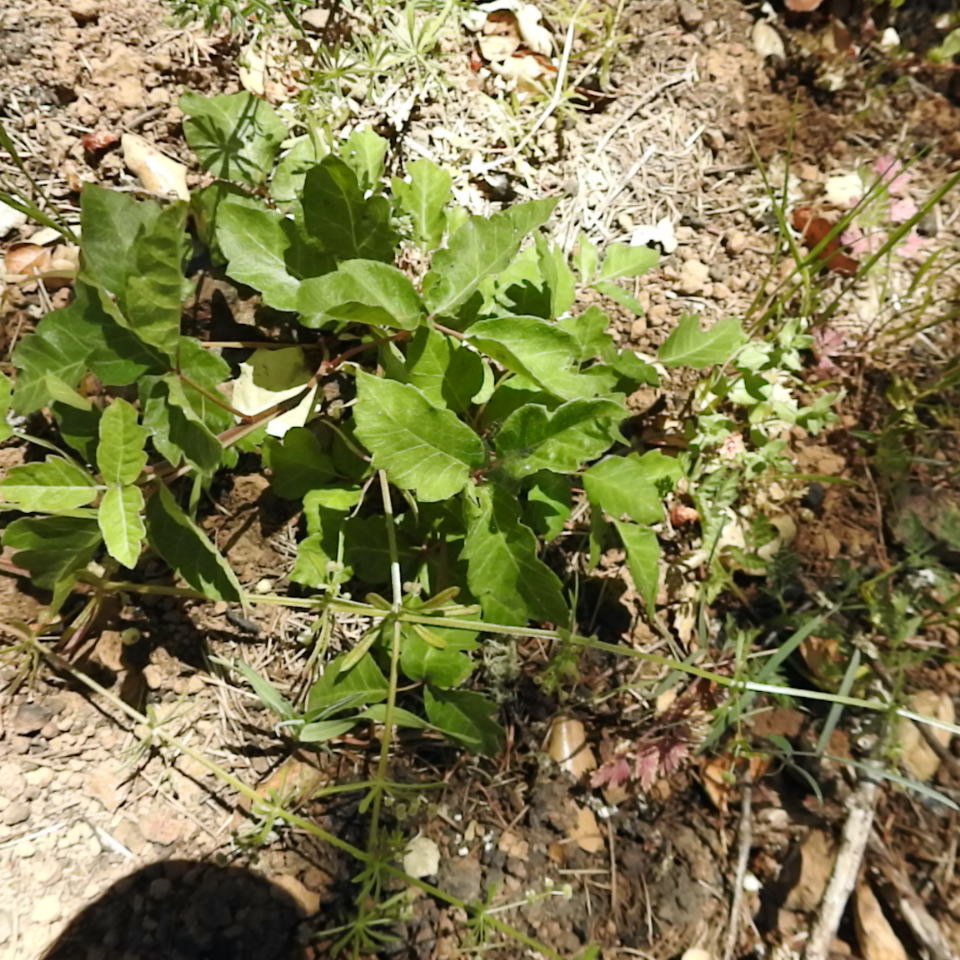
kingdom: Plantae
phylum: Tracheophyta
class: Magnoliopsida
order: Sapindales
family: Anacardiaceae
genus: Toxicodendron
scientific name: Toxicodendron diversilobum
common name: Pacific poison-oak
